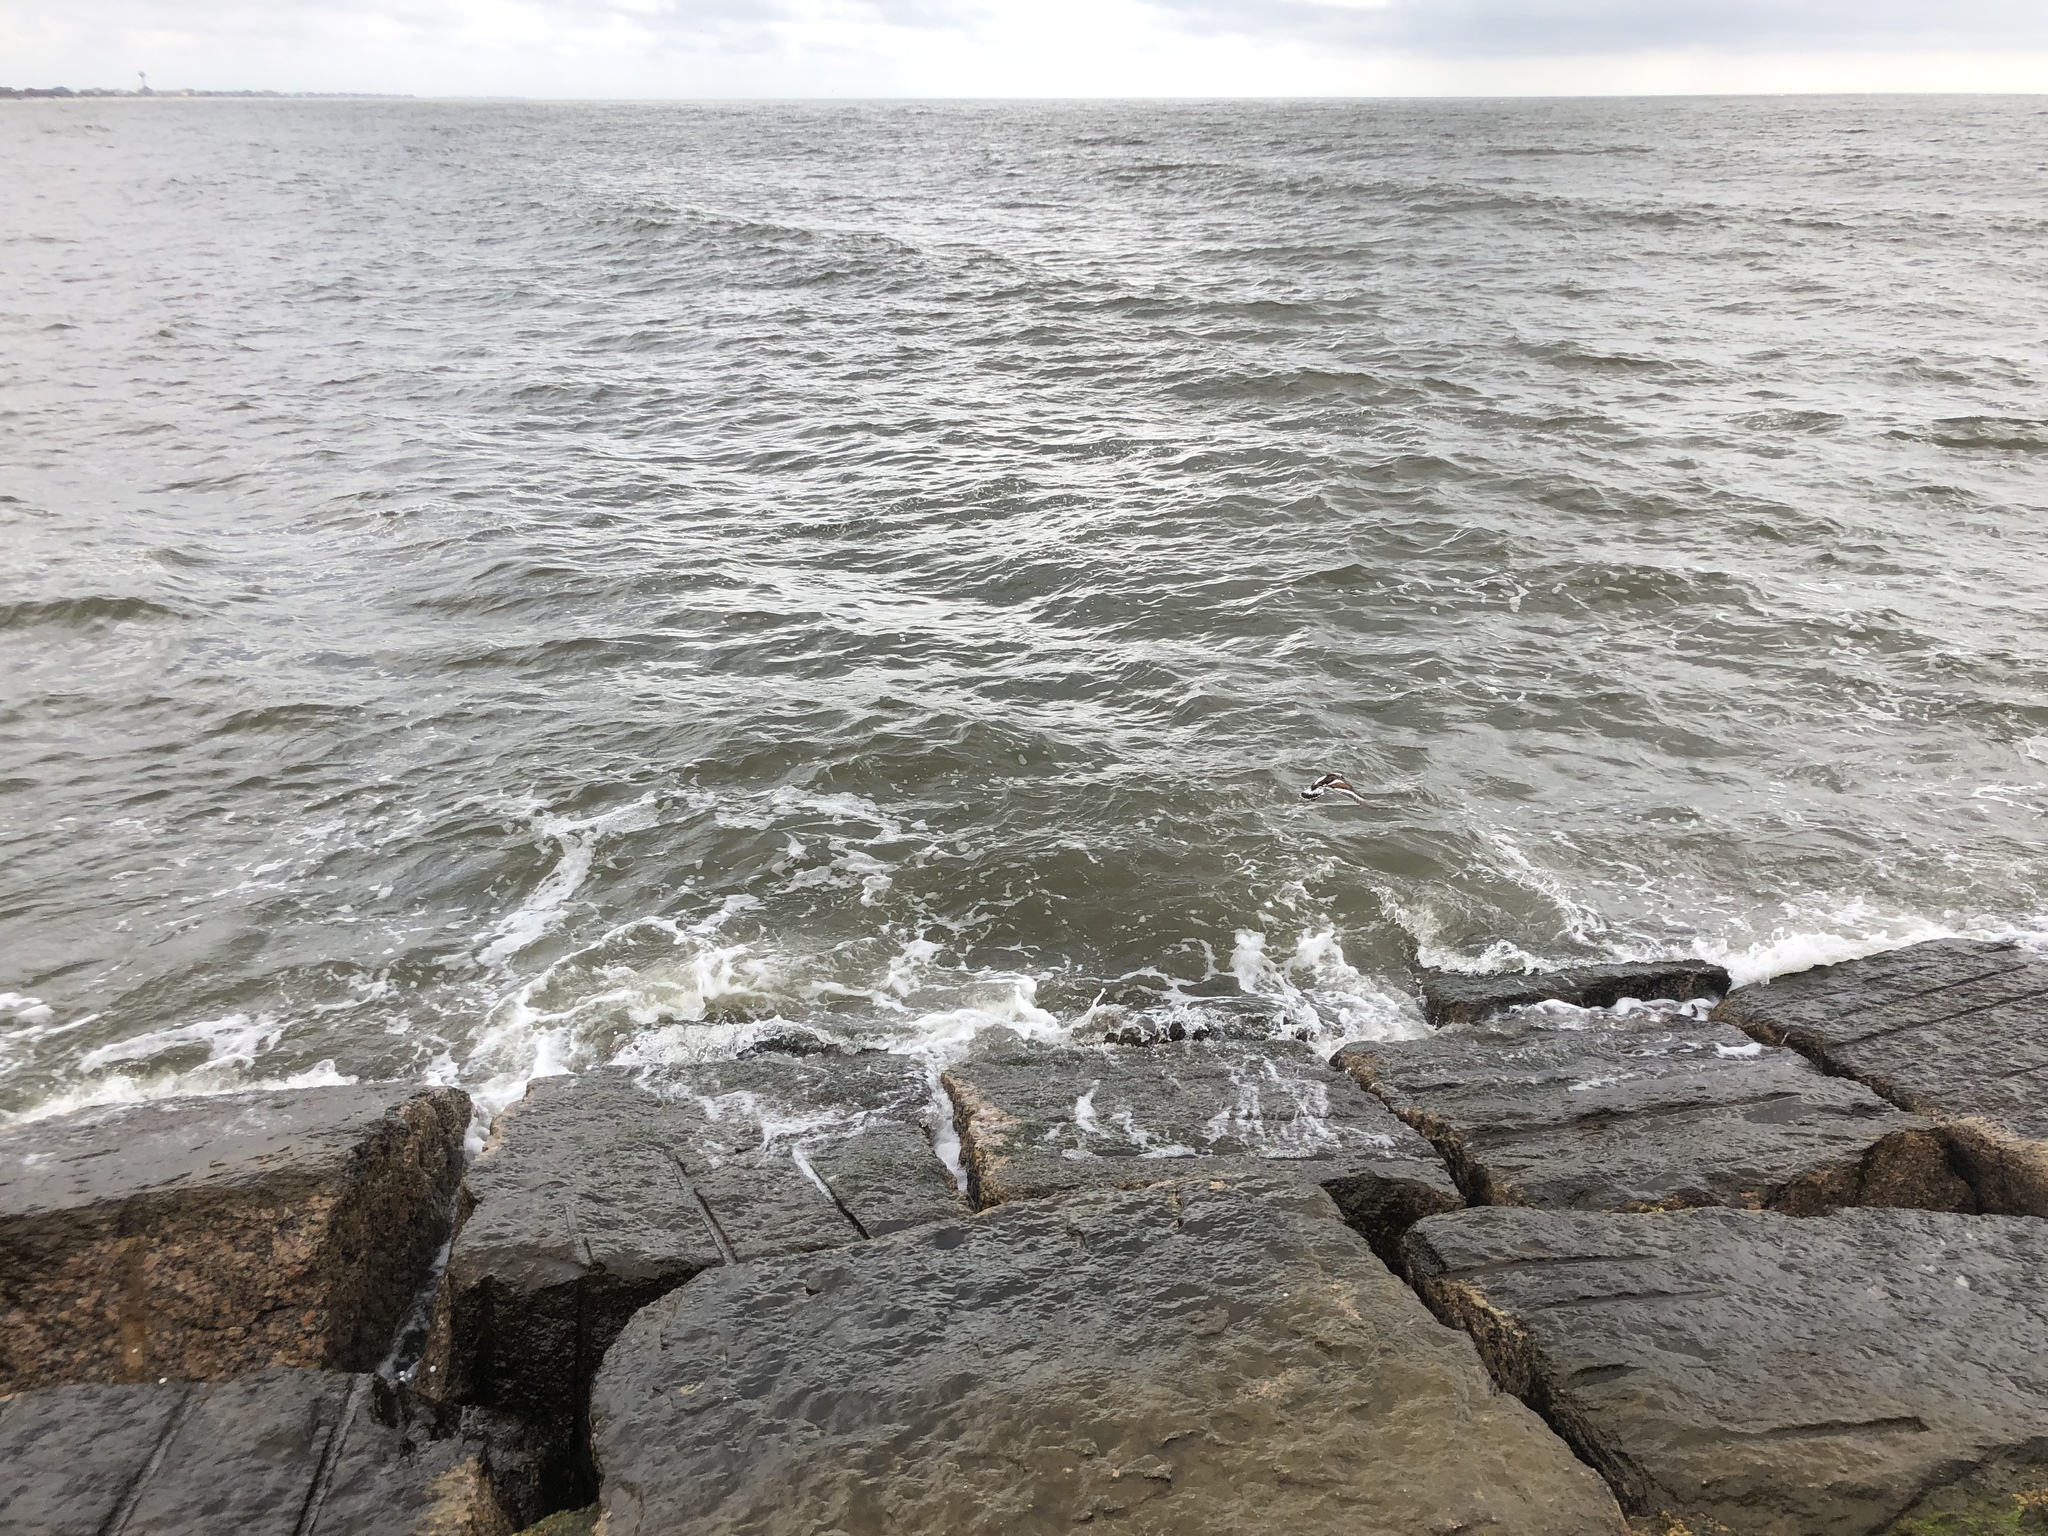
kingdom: Animalia
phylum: Chordata
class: Aves
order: Charadriiformes
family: Scolopacidae
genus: Arenaria
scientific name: Arenaria interpres
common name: Ruddy turnstone
